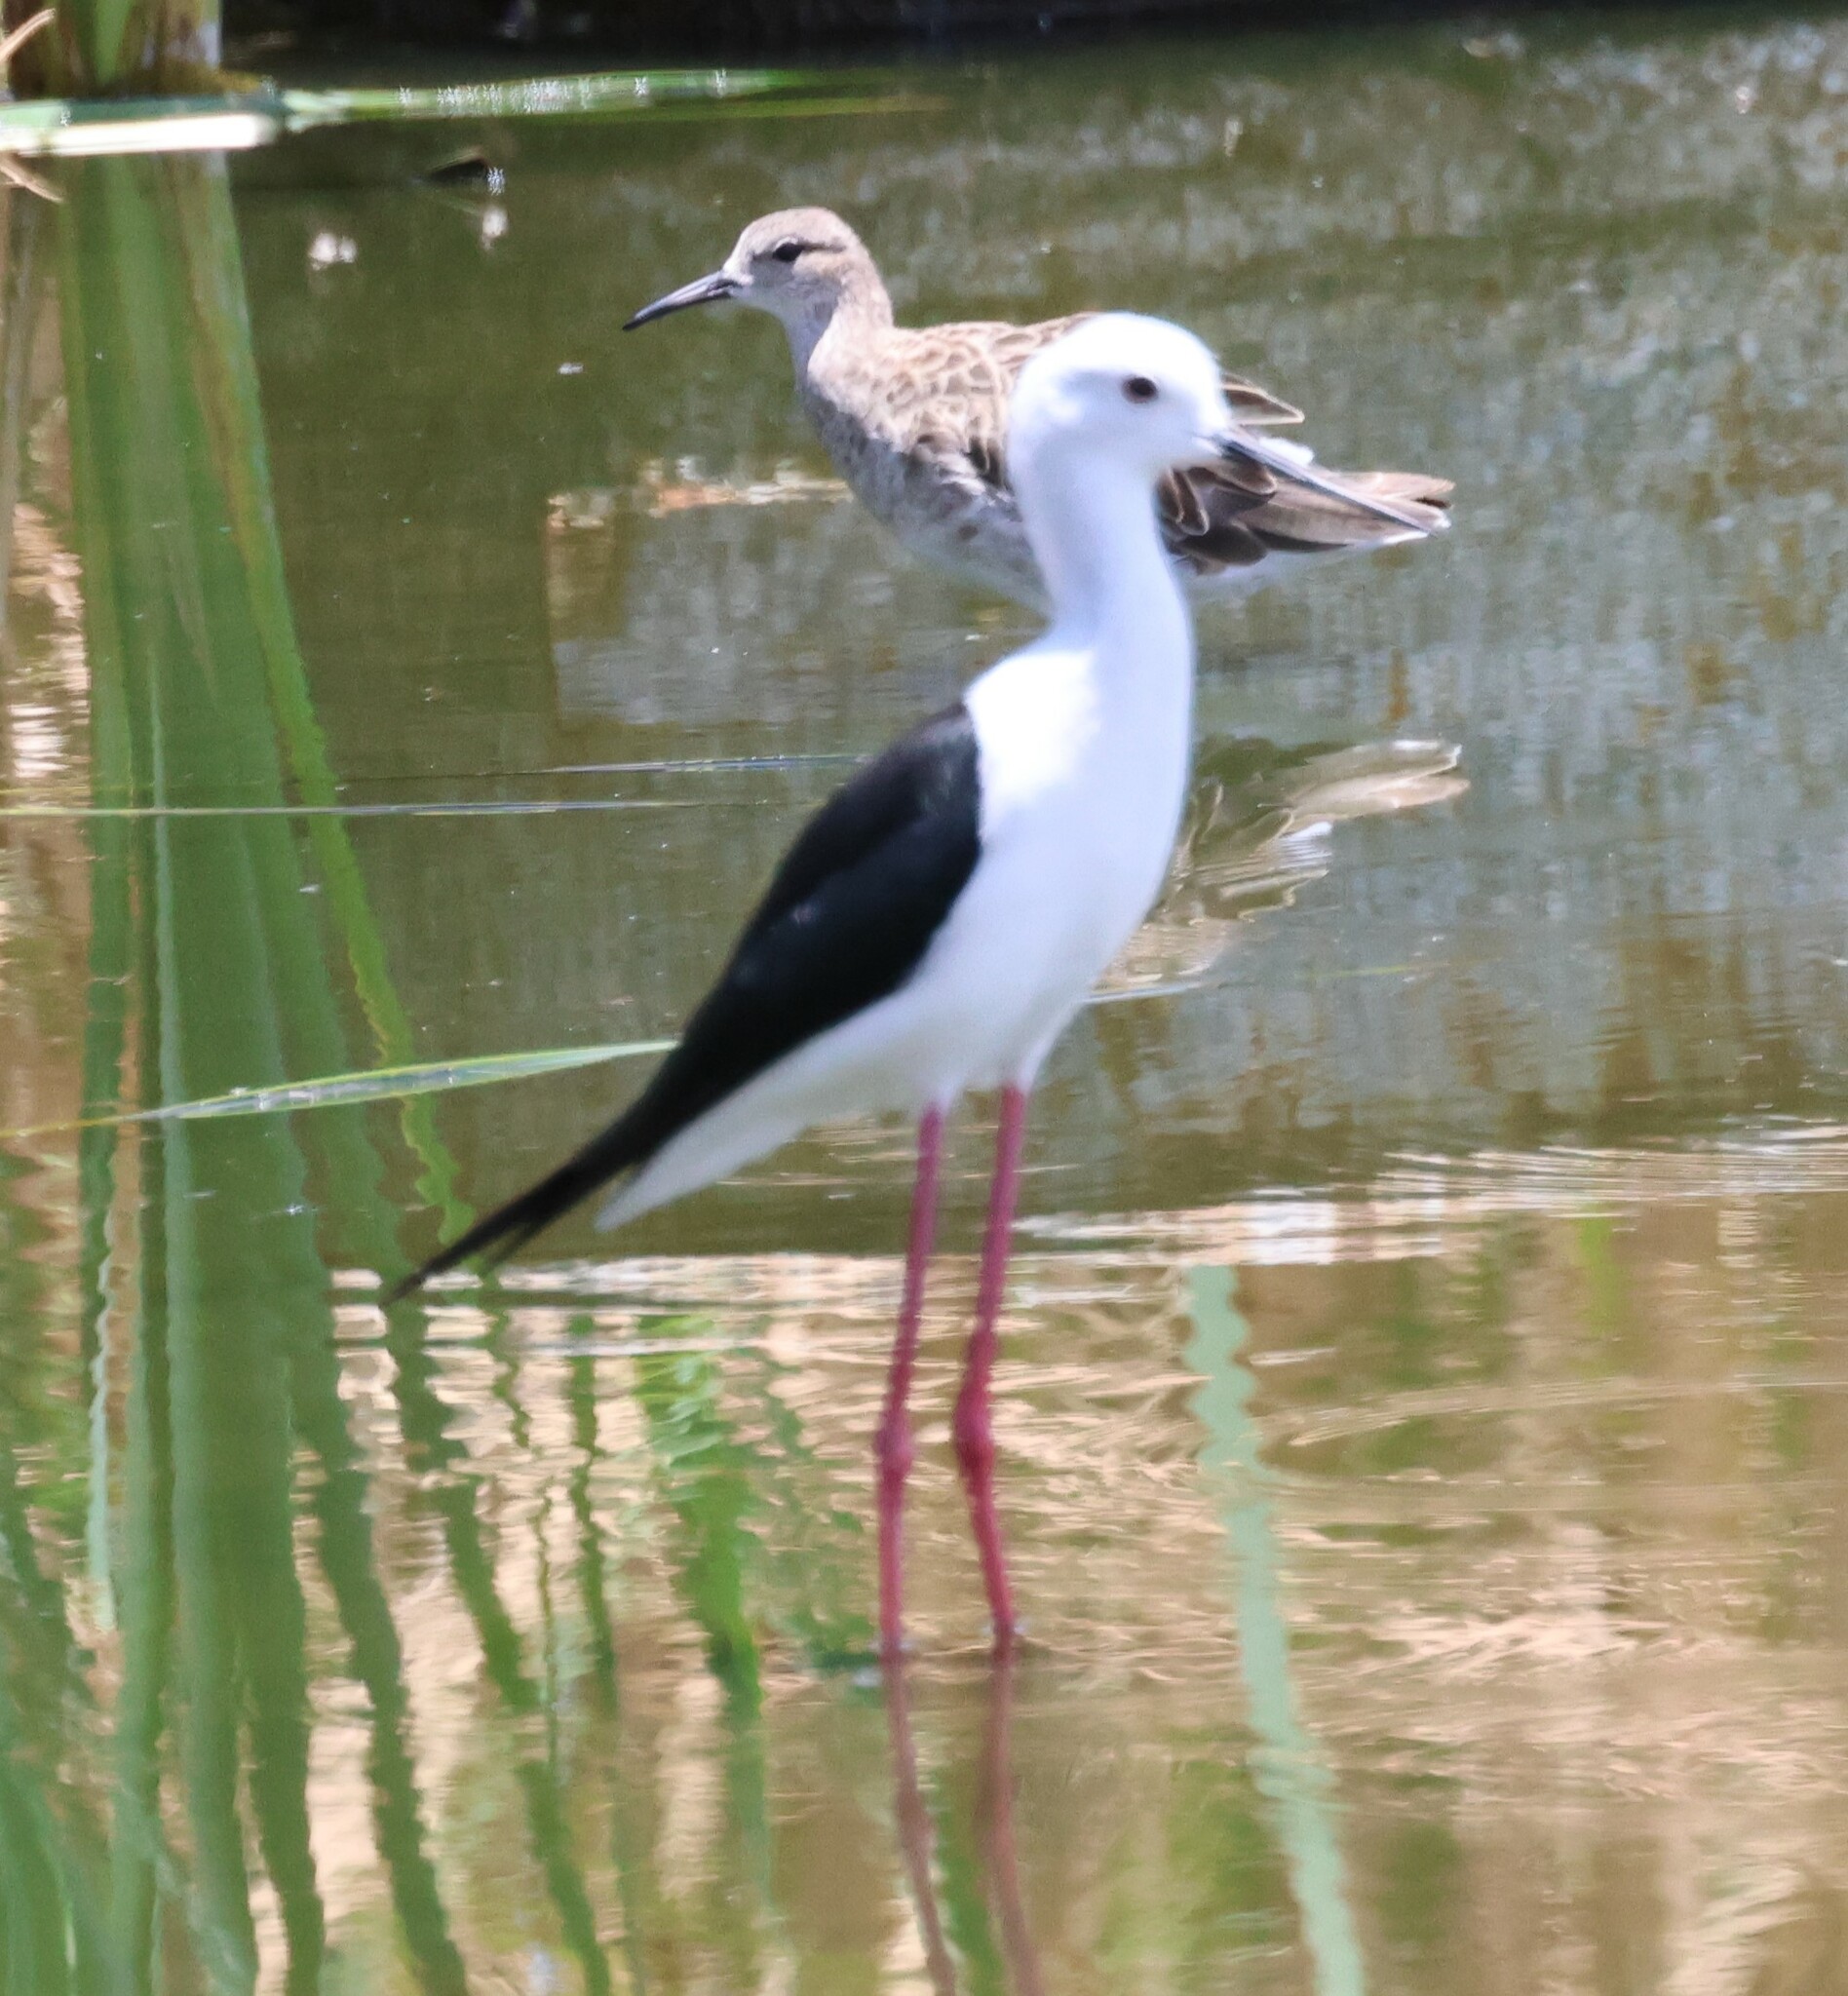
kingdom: Animalia
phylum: Chordata
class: Aves
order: Charadriiformes
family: Recurvirostridae
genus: Himantopus
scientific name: Himantopus himantopus
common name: Black-winged stilt
